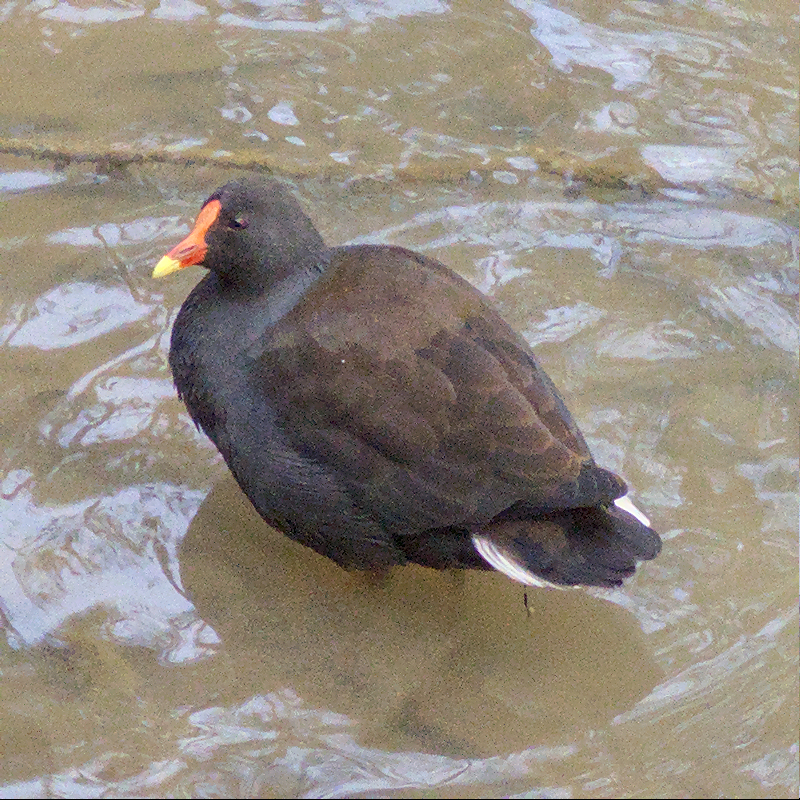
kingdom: Animalia
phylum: Chordata
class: Aves
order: Gruiformes
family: Rallidae
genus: Gallinula
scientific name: Gallinula tenebrosa
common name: Dusky moorhen
